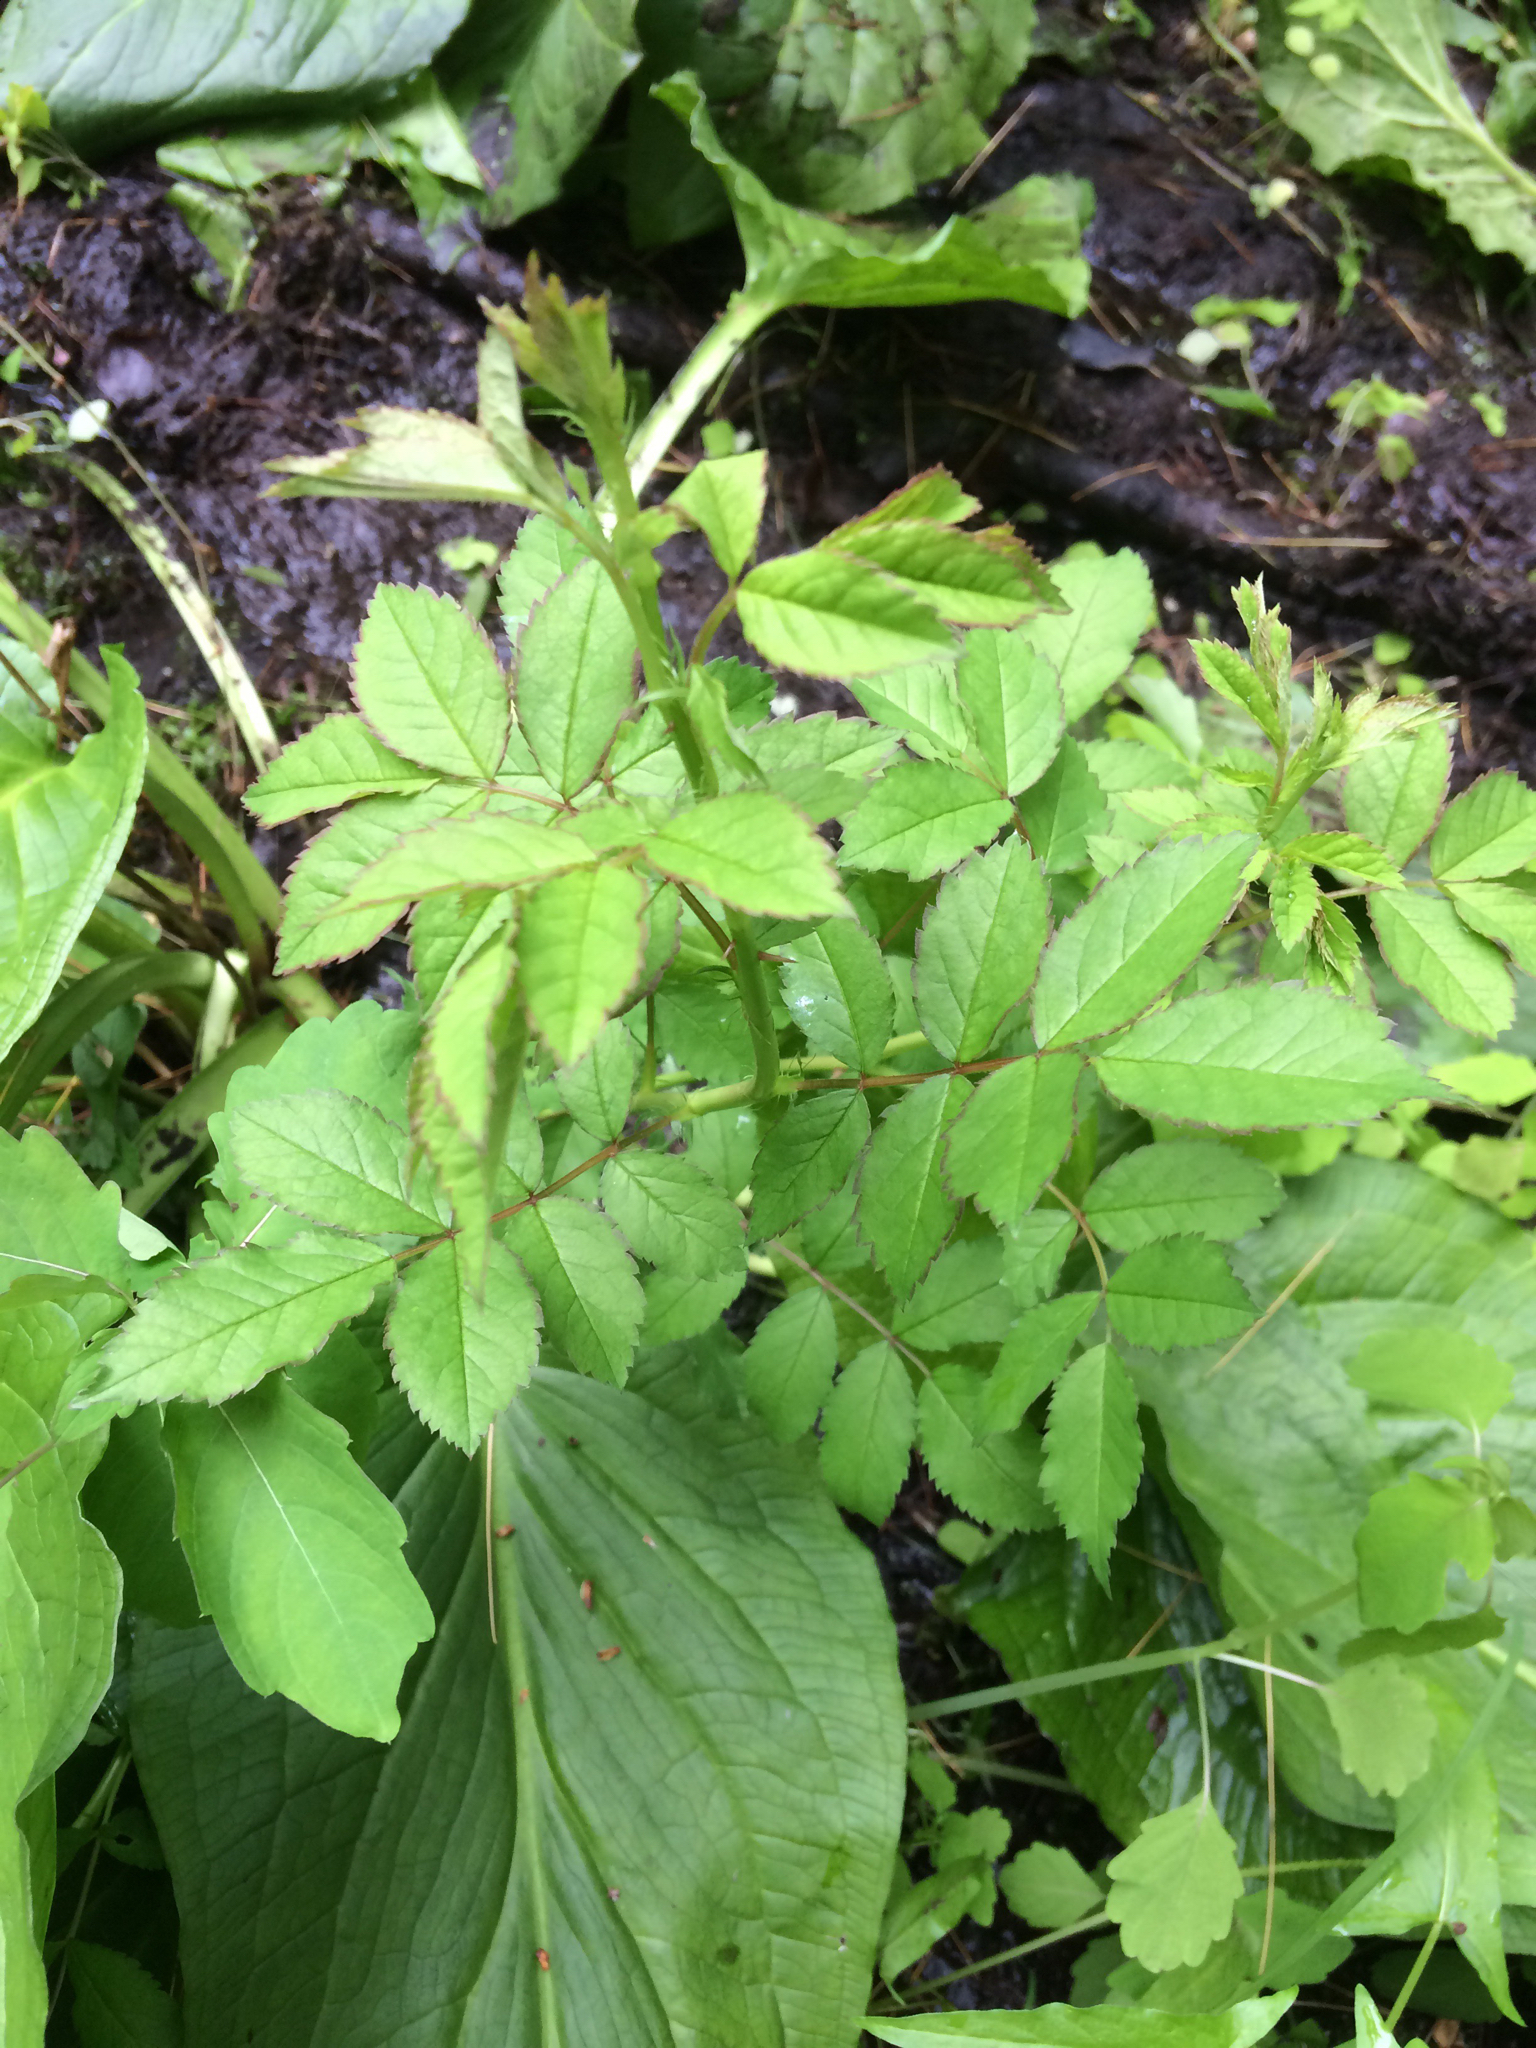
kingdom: Plantae
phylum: Tracheophyta
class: Magnoliopsida
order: Rosales
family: Rosaceae
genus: Rosa
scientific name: Rosa multiflora
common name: Multiflora rose
